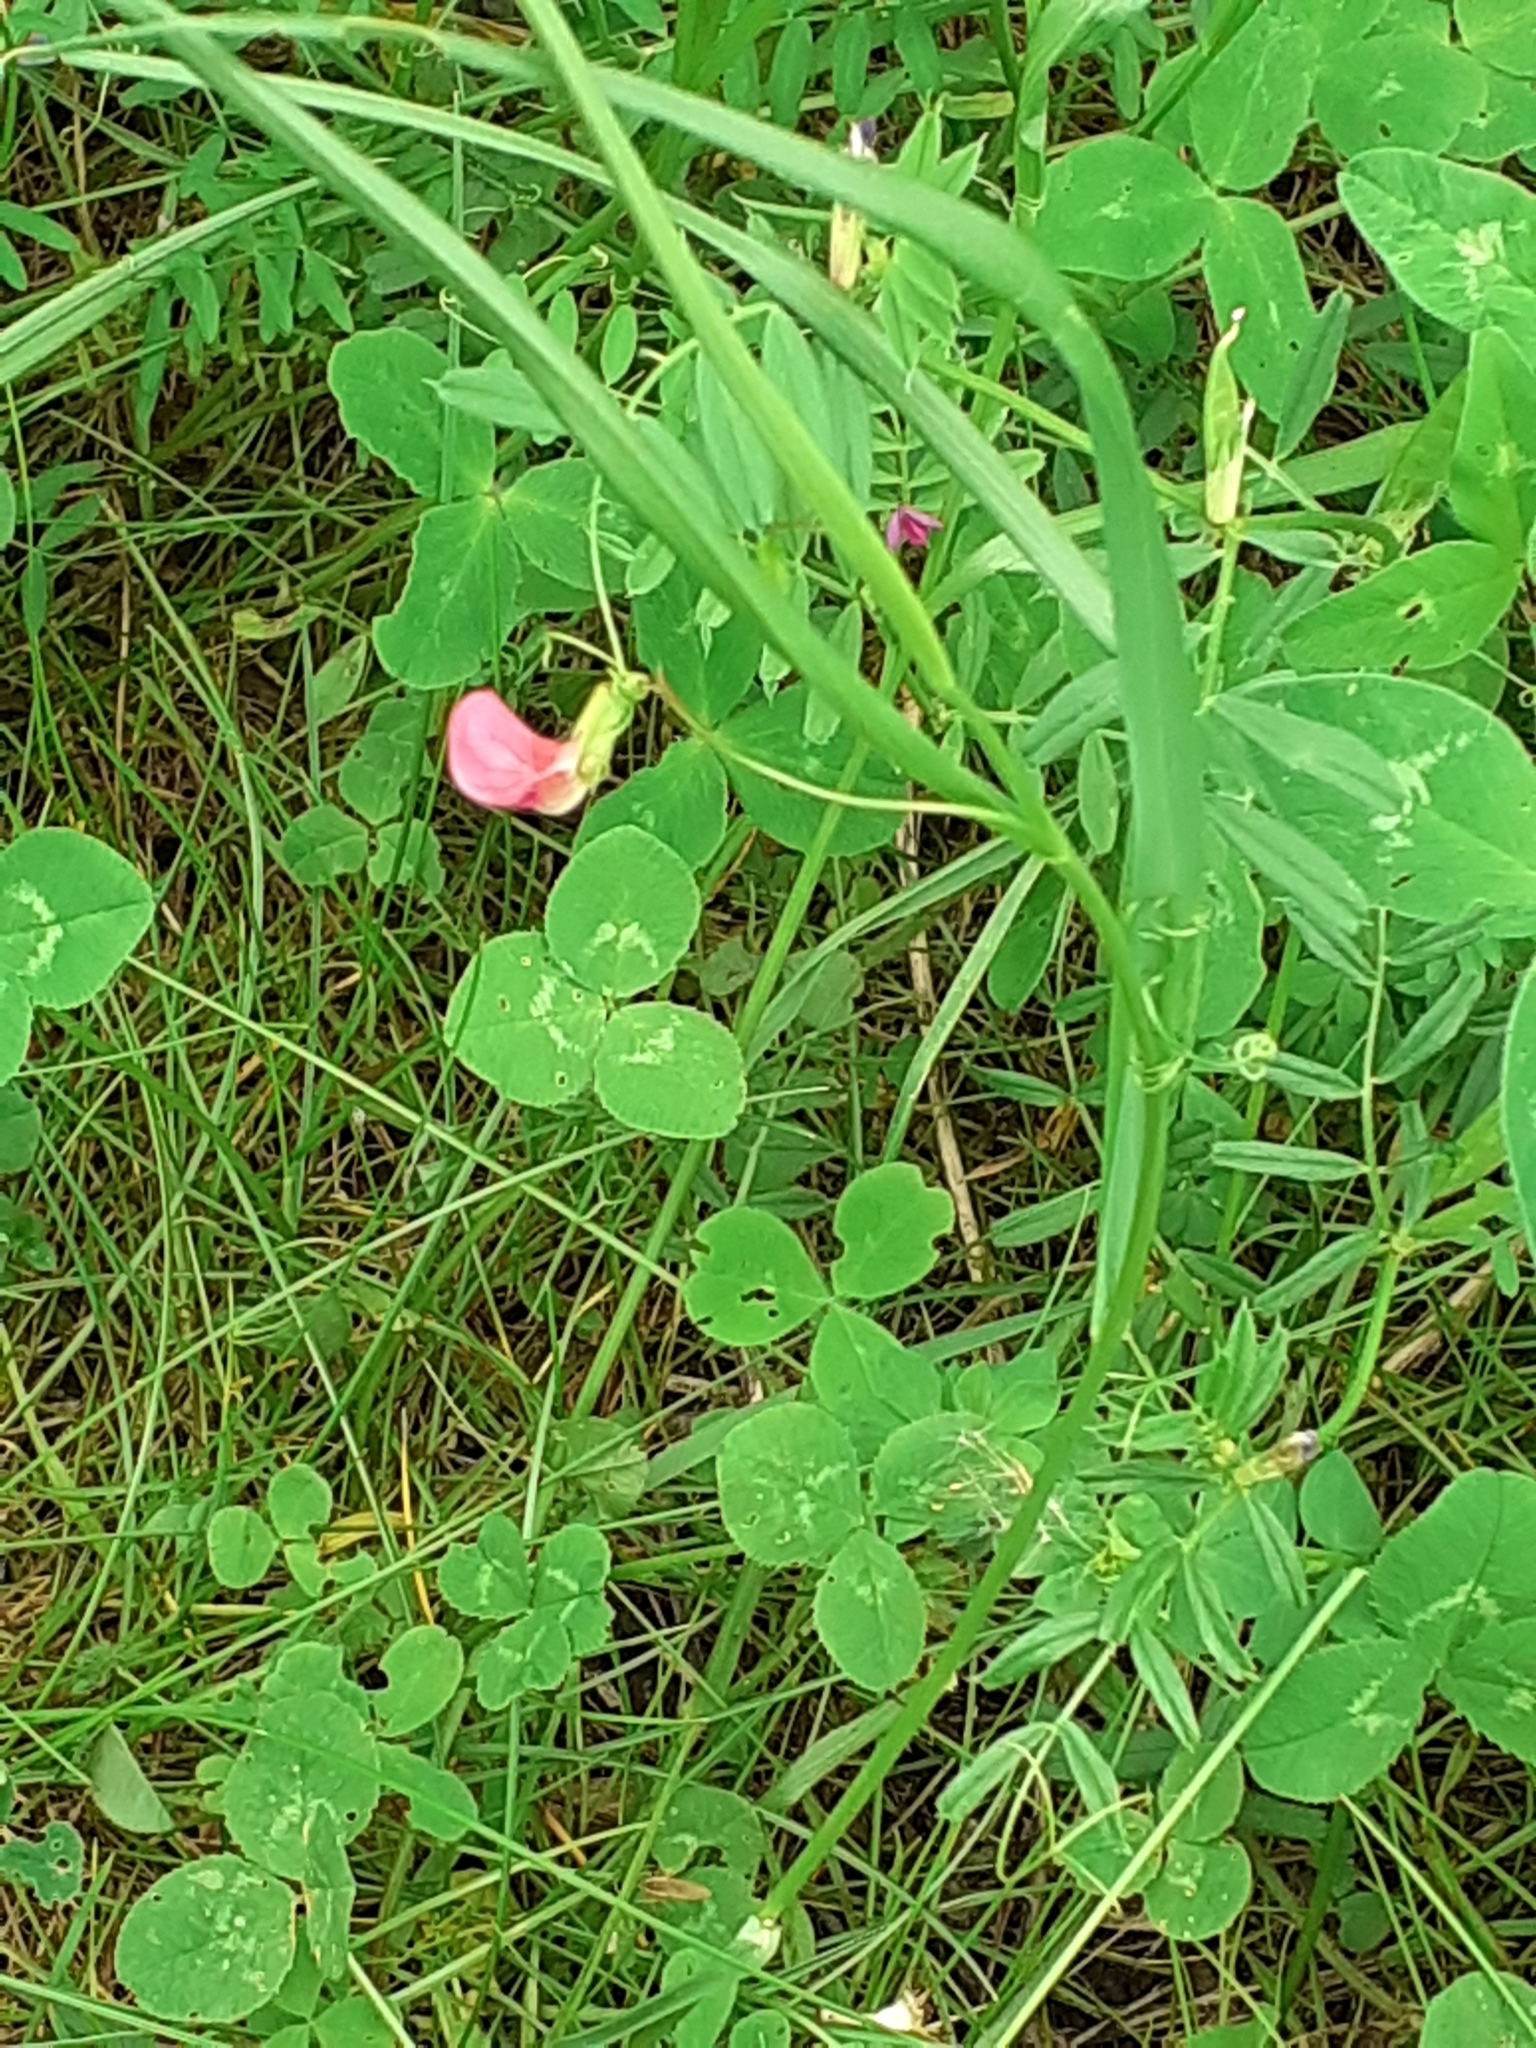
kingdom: Plantae
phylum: Tracheophyta
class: Magnoliopsida
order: Fabales
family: Fabaceae
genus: Lathyrus
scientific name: Lathyrus nissolia
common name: Grass vetchling
